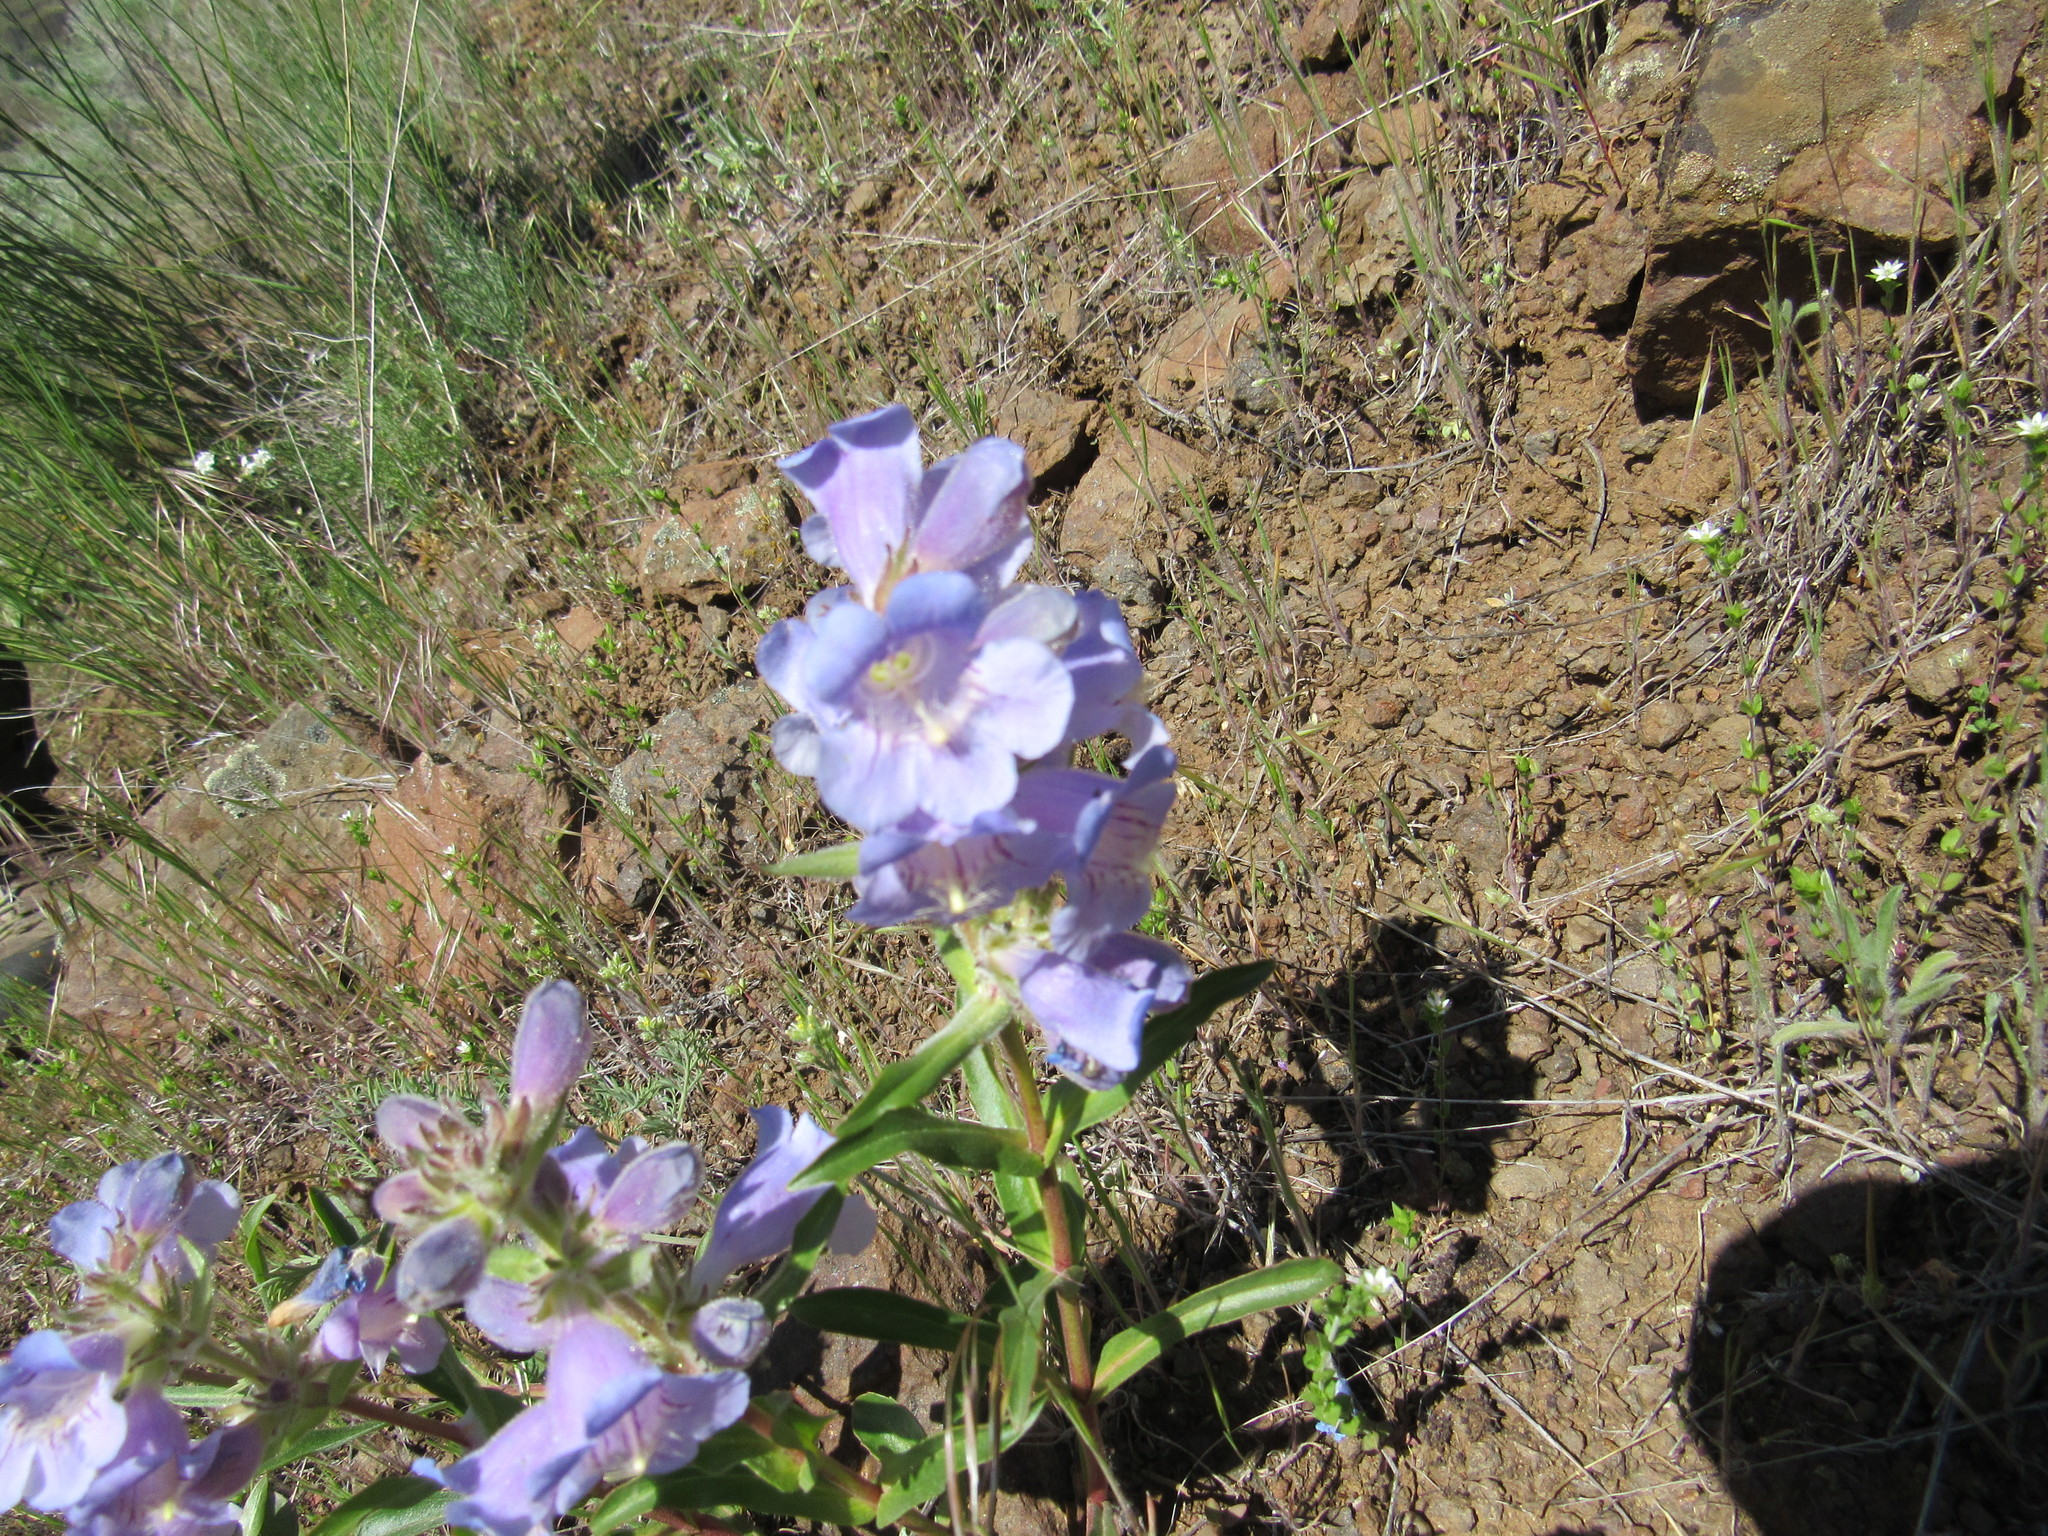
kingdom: Plantae
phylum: Tracheophyta
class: Magnoliopsida
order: Lamiales
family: Plantaginaceae
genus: Penstemon
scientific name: Penstemon eriantherus
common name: Crested beardtongue
